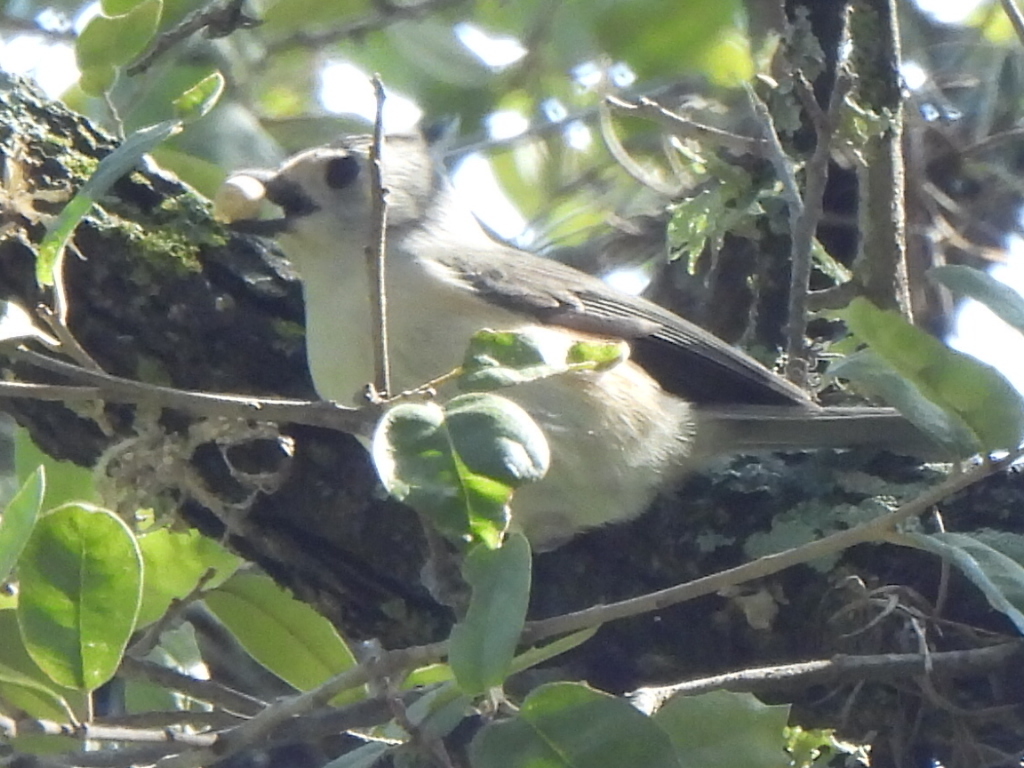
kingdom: Animalia
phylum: Chordata
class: Aves
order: Passeriformes
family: Paridae
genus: Baeolophus
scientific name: Baeolophus atricristatus
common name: Black-crested titmouse
